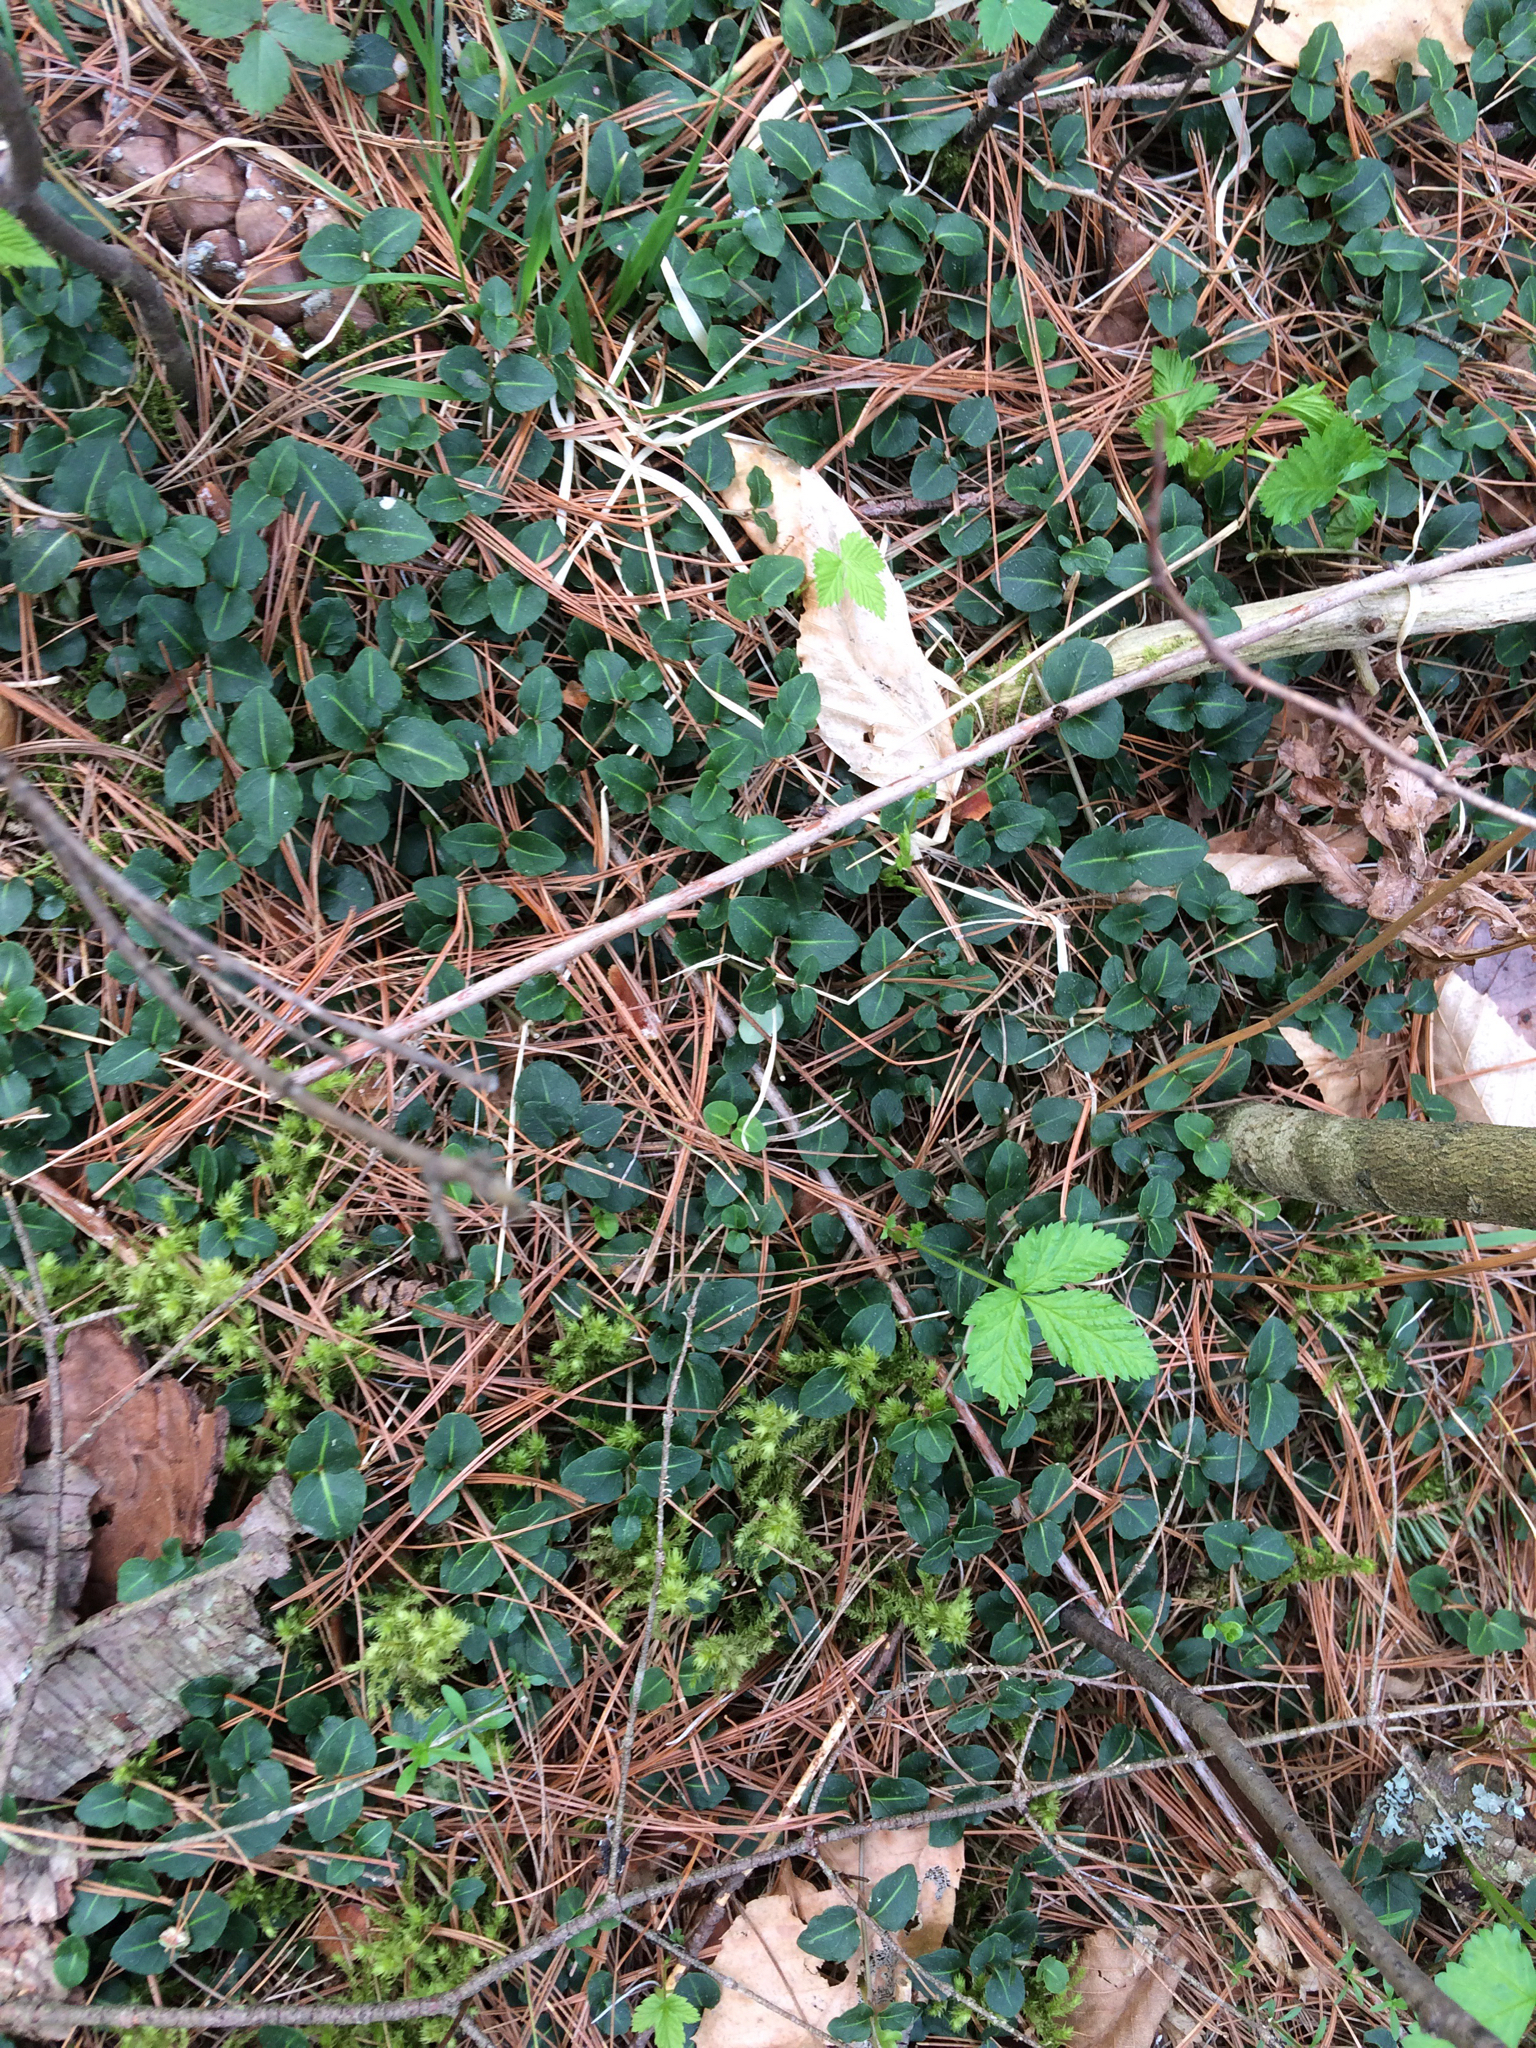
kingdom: Plantae
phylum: Tracheophyta
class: Magnoliopsida
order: Gentianales
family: Rubiaceae
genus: Mitchella
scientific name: Mitchella repens
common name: Partridge-berry
